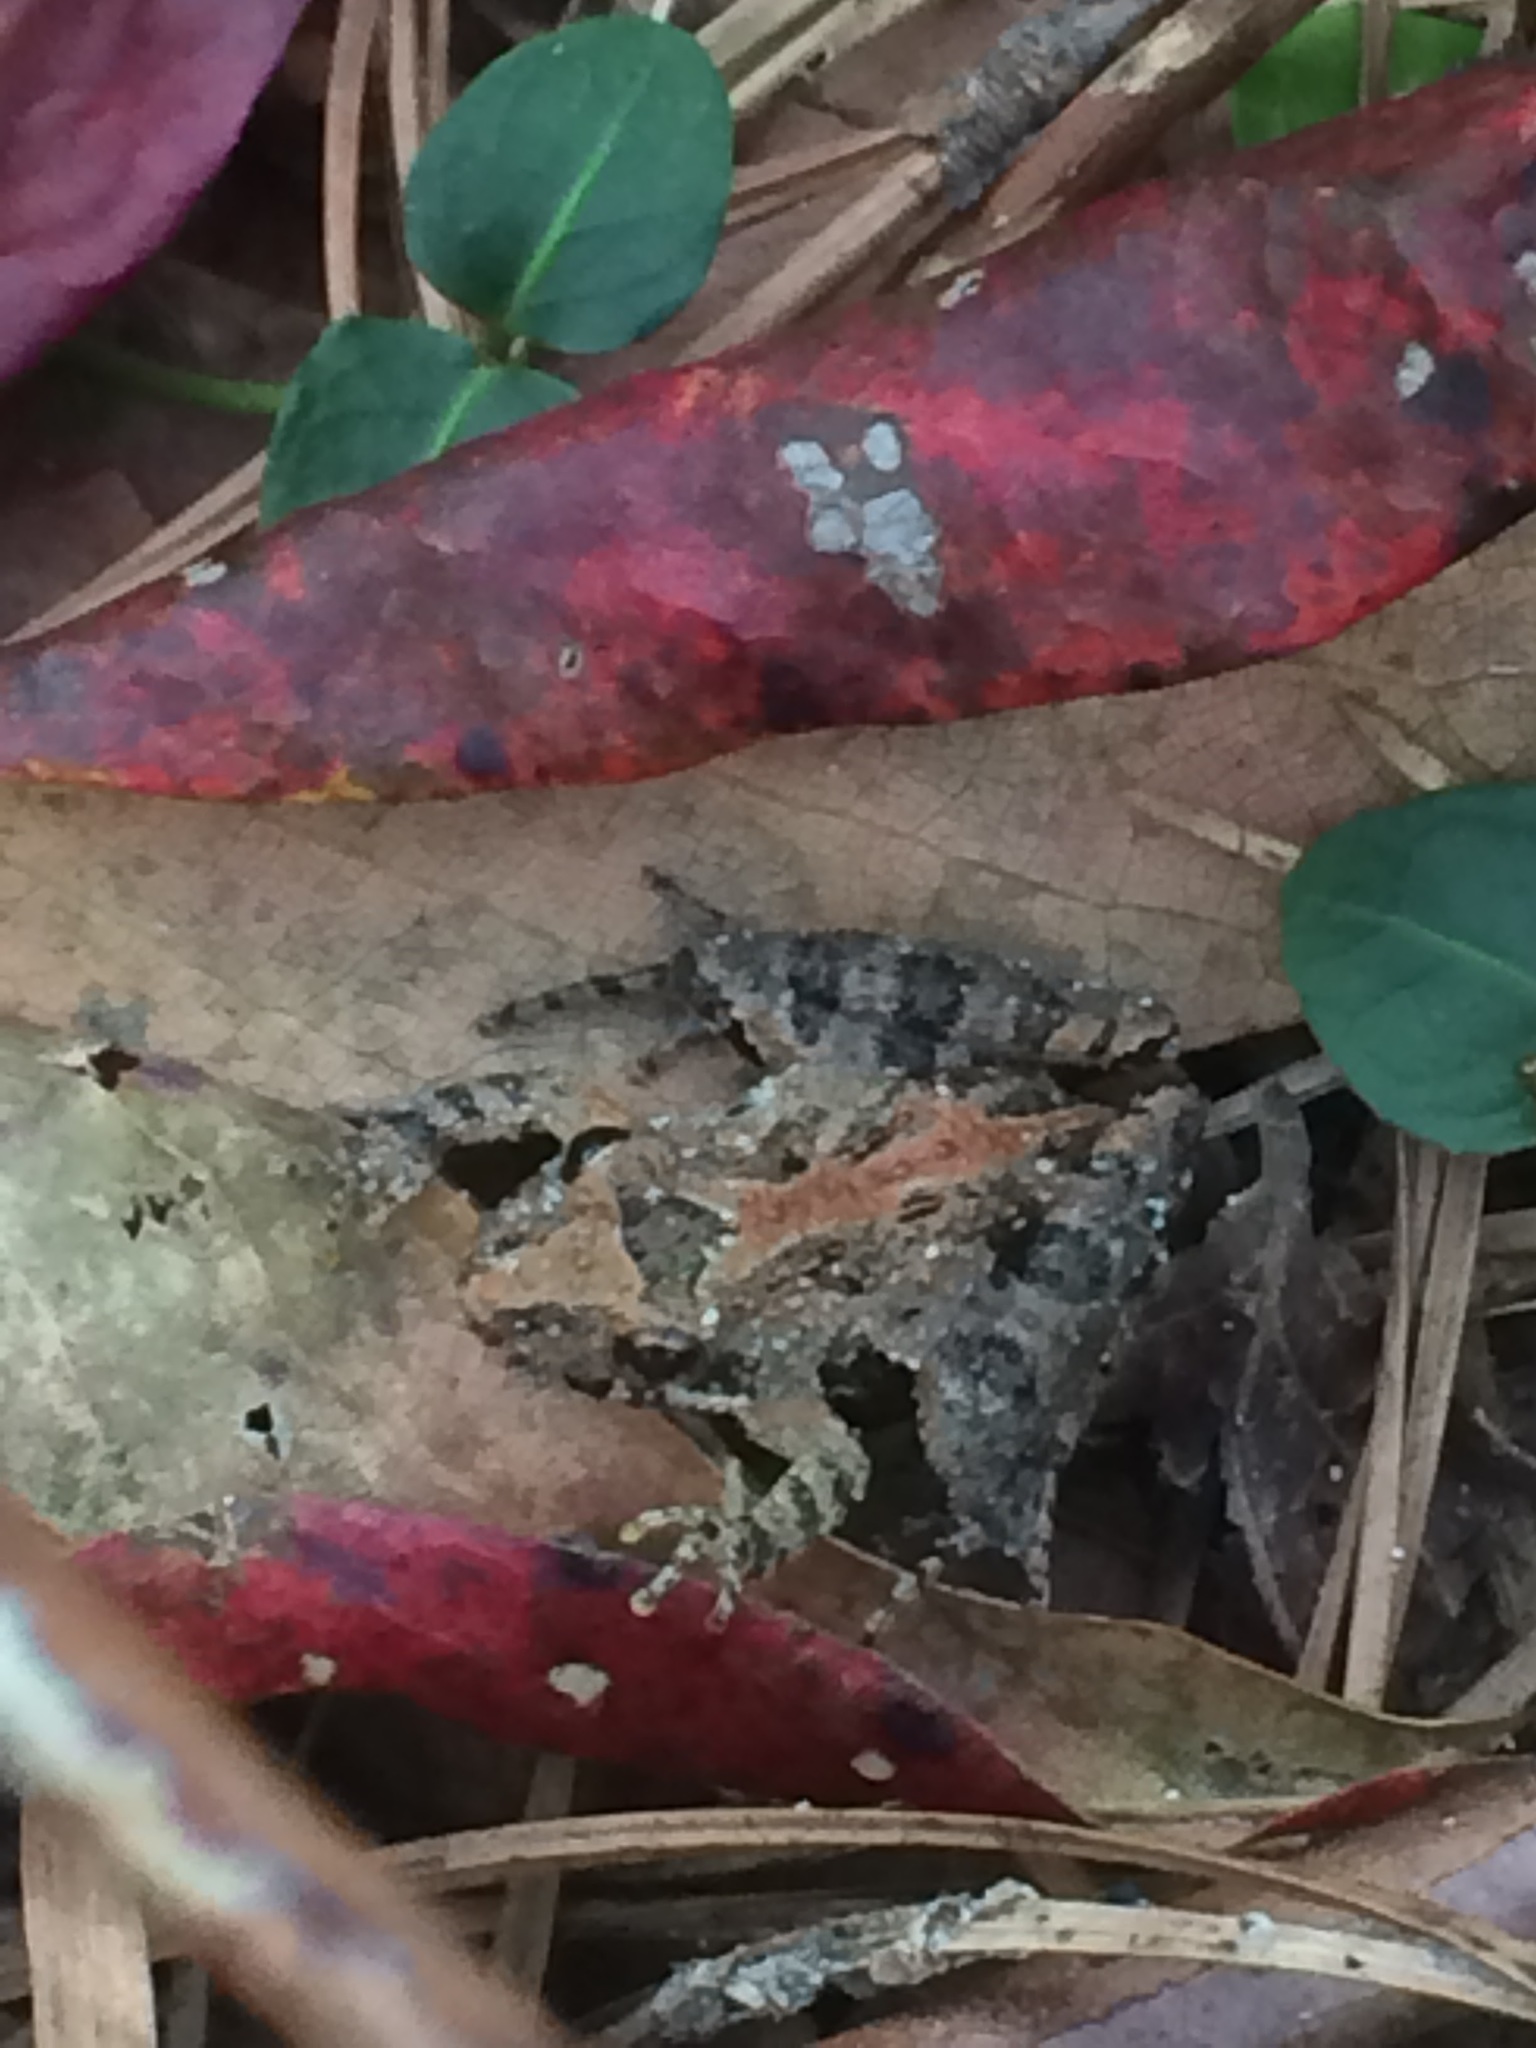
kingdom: Animalia
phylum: Chordata
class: Amphibia
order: Anura
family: Hylidae
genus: Acris
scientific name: Acris gryllus
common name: Southern cricket frog
